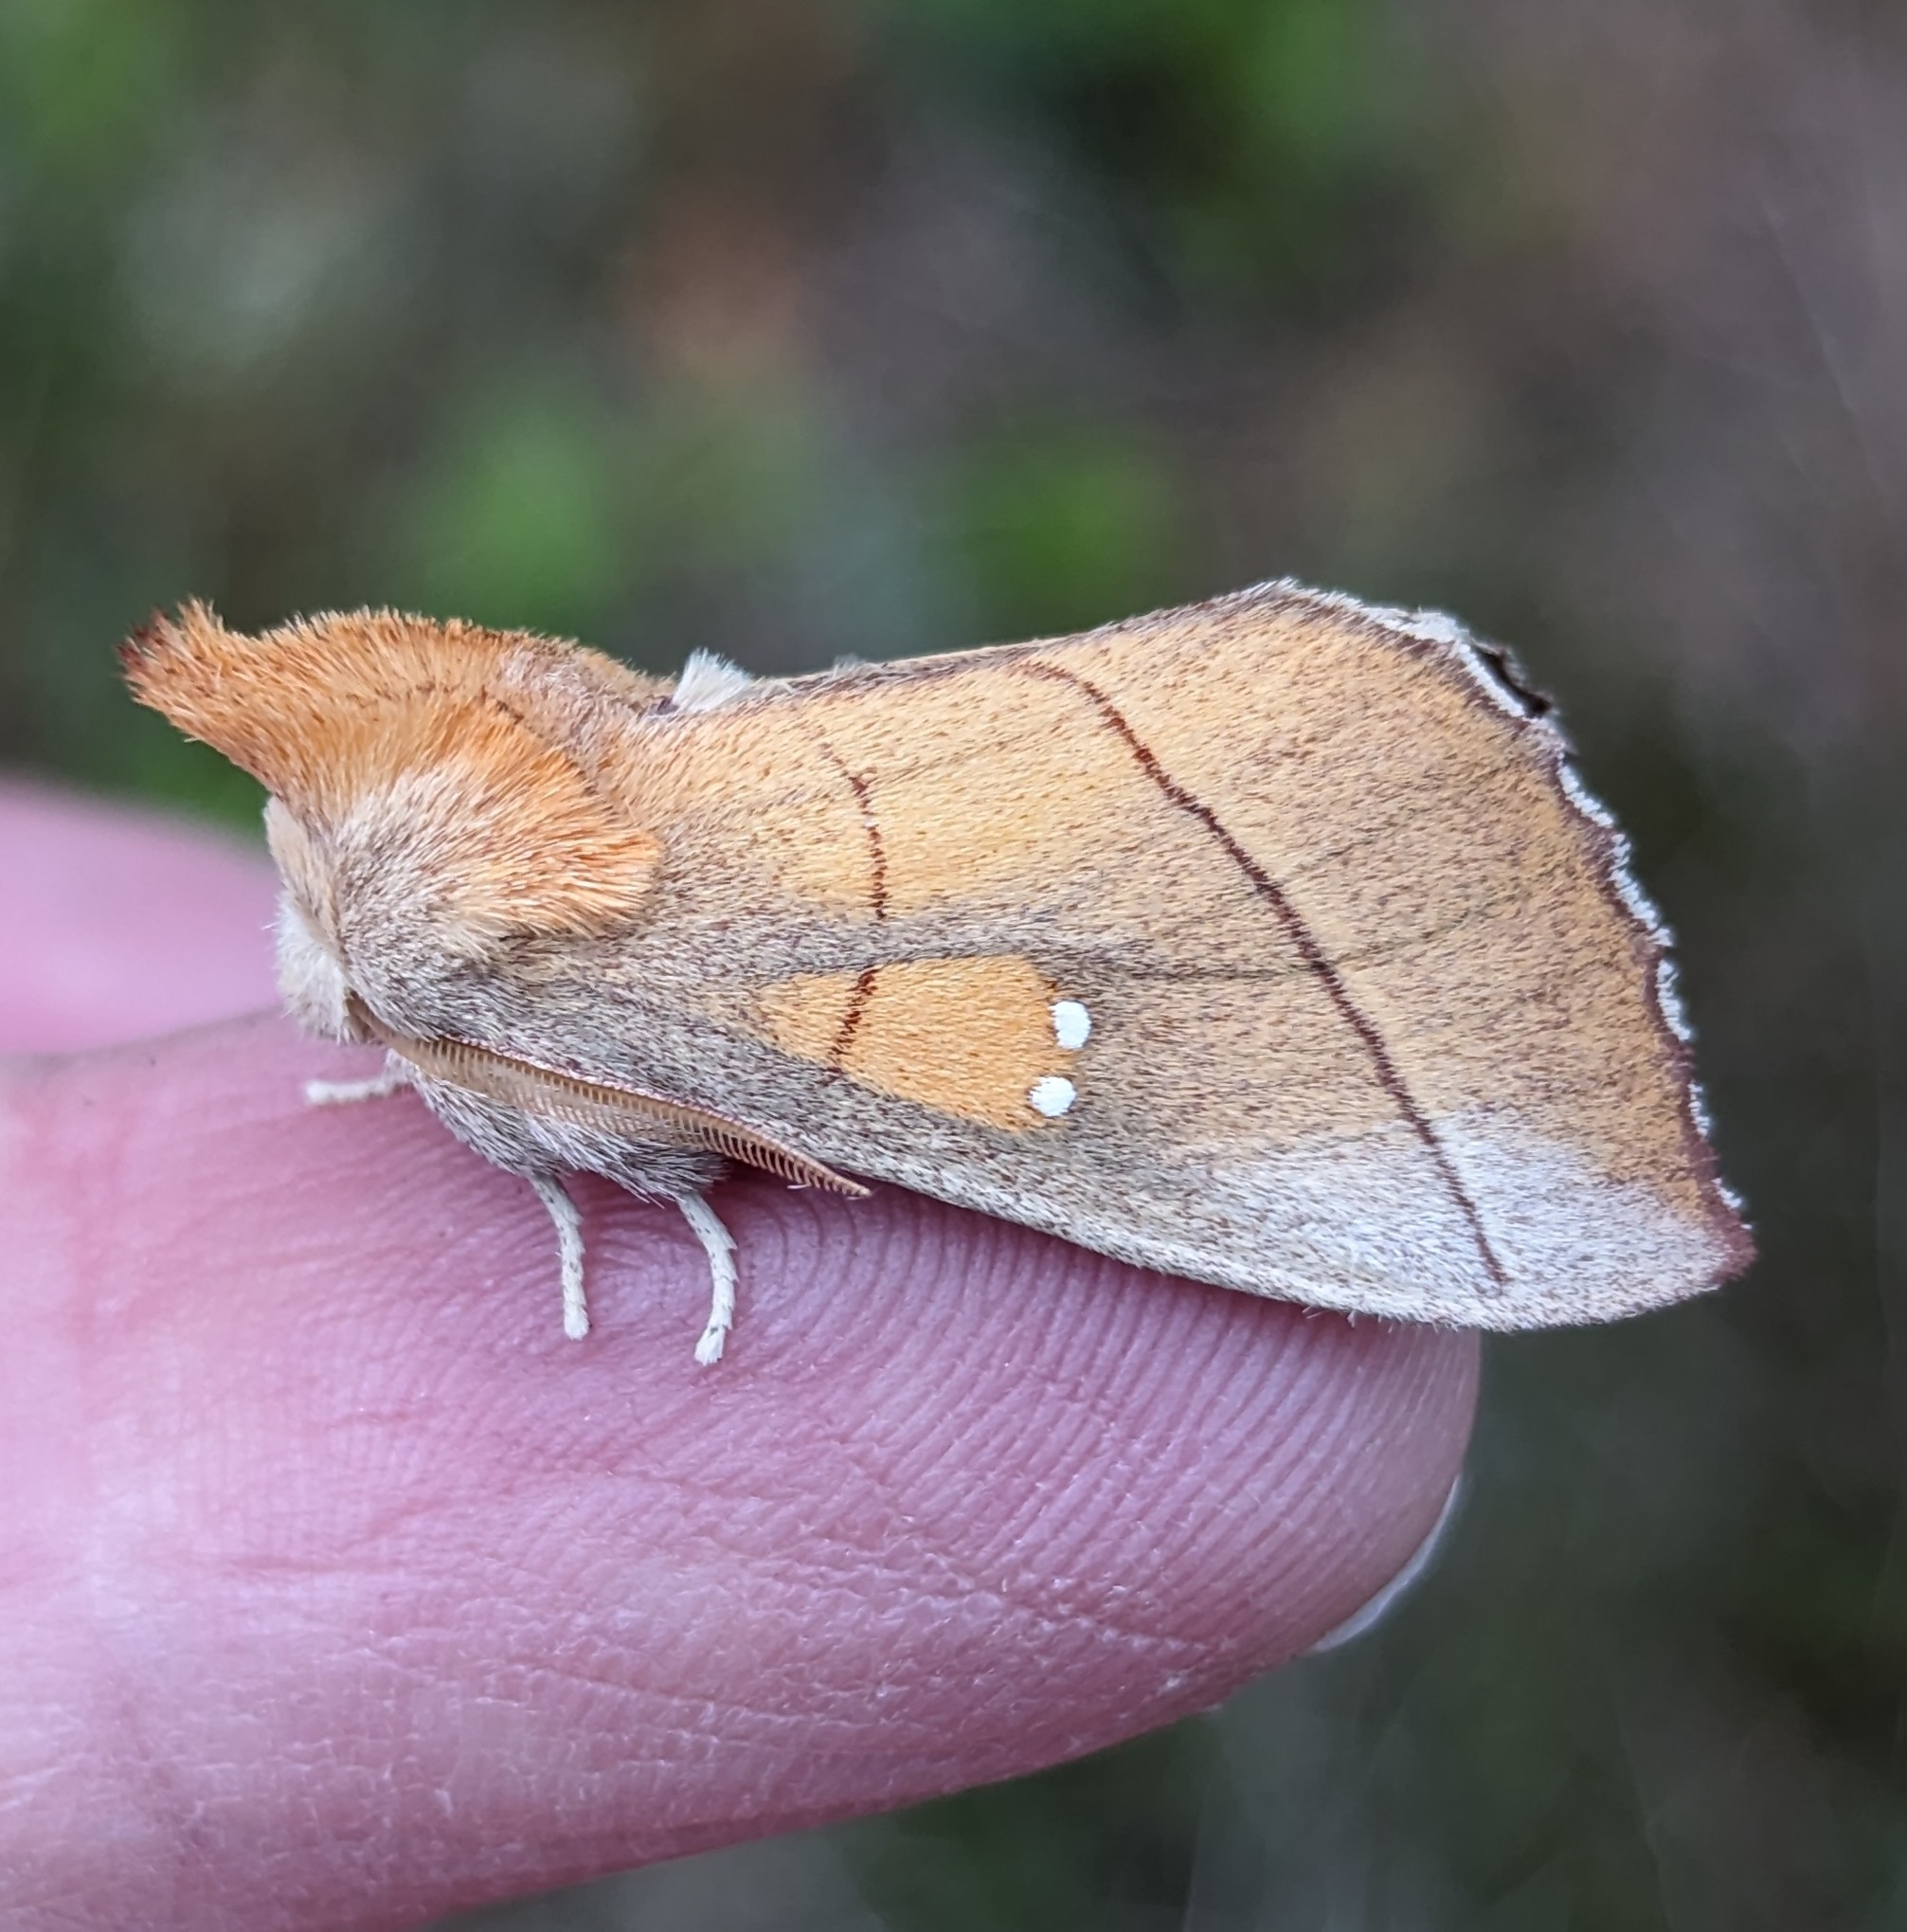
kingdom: Animalia
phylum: Arthropoda
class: Insecta
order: Lepidoptera
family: Notodontidae
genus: Nadata
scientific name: Nadata gibbosa
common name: White-dotted prominent
